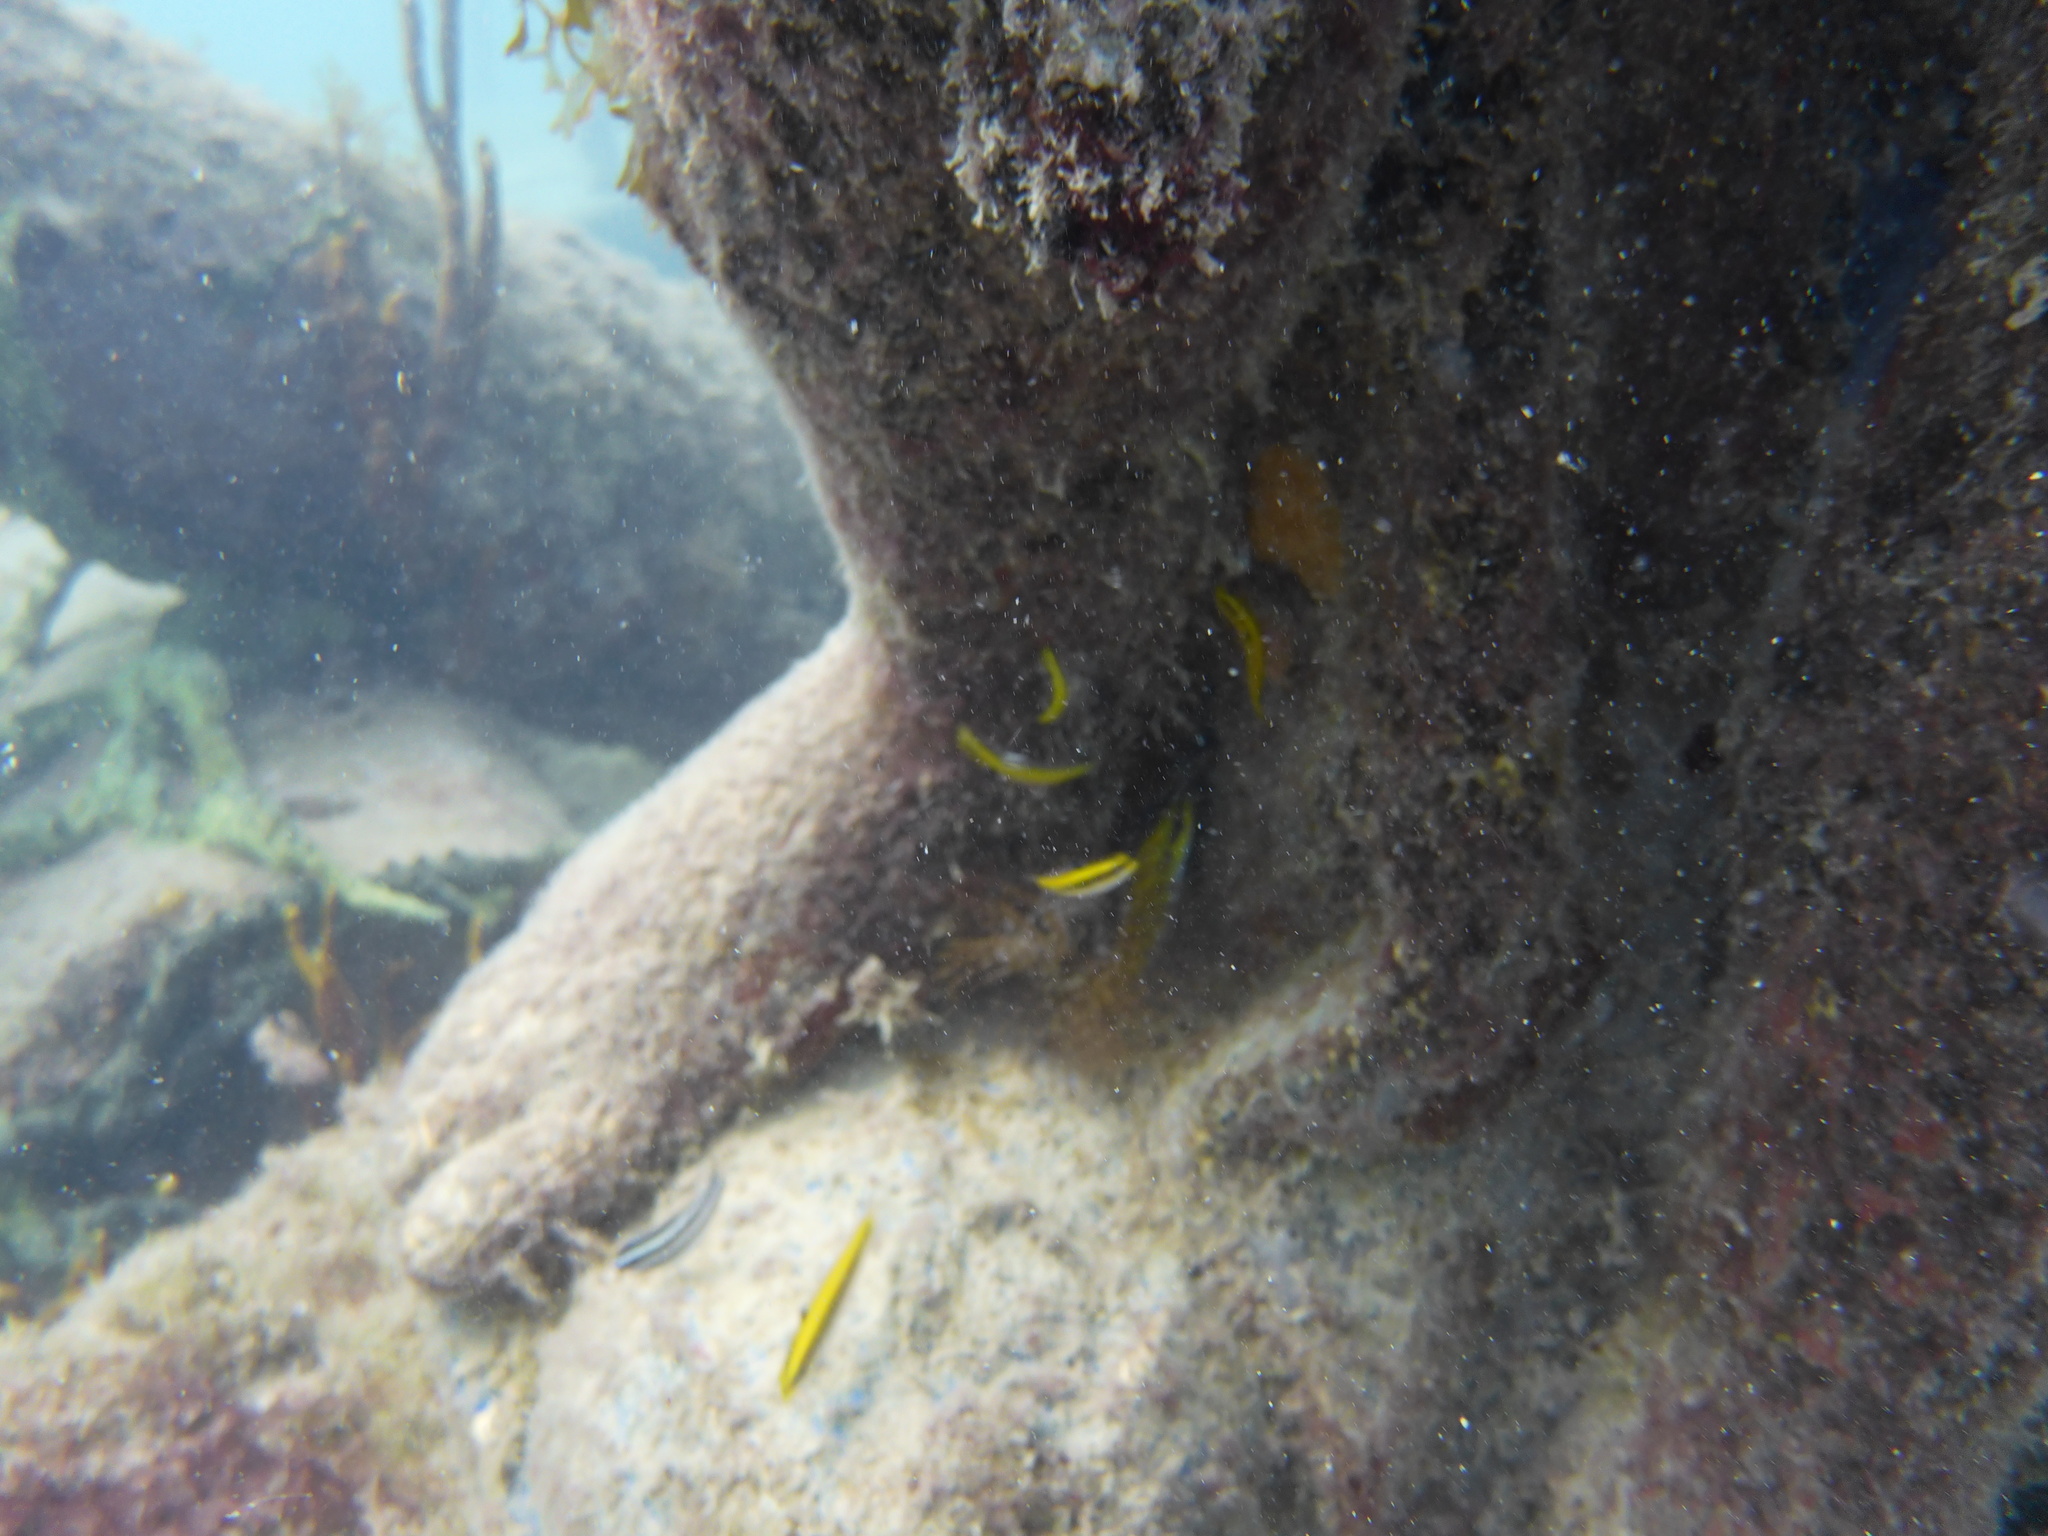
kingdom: Animalia
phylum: Chordata
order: Perciformes
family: Labridae
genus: Thalassoma
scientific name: Thalassoma bifasciatum
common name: Bluehead wrasse
